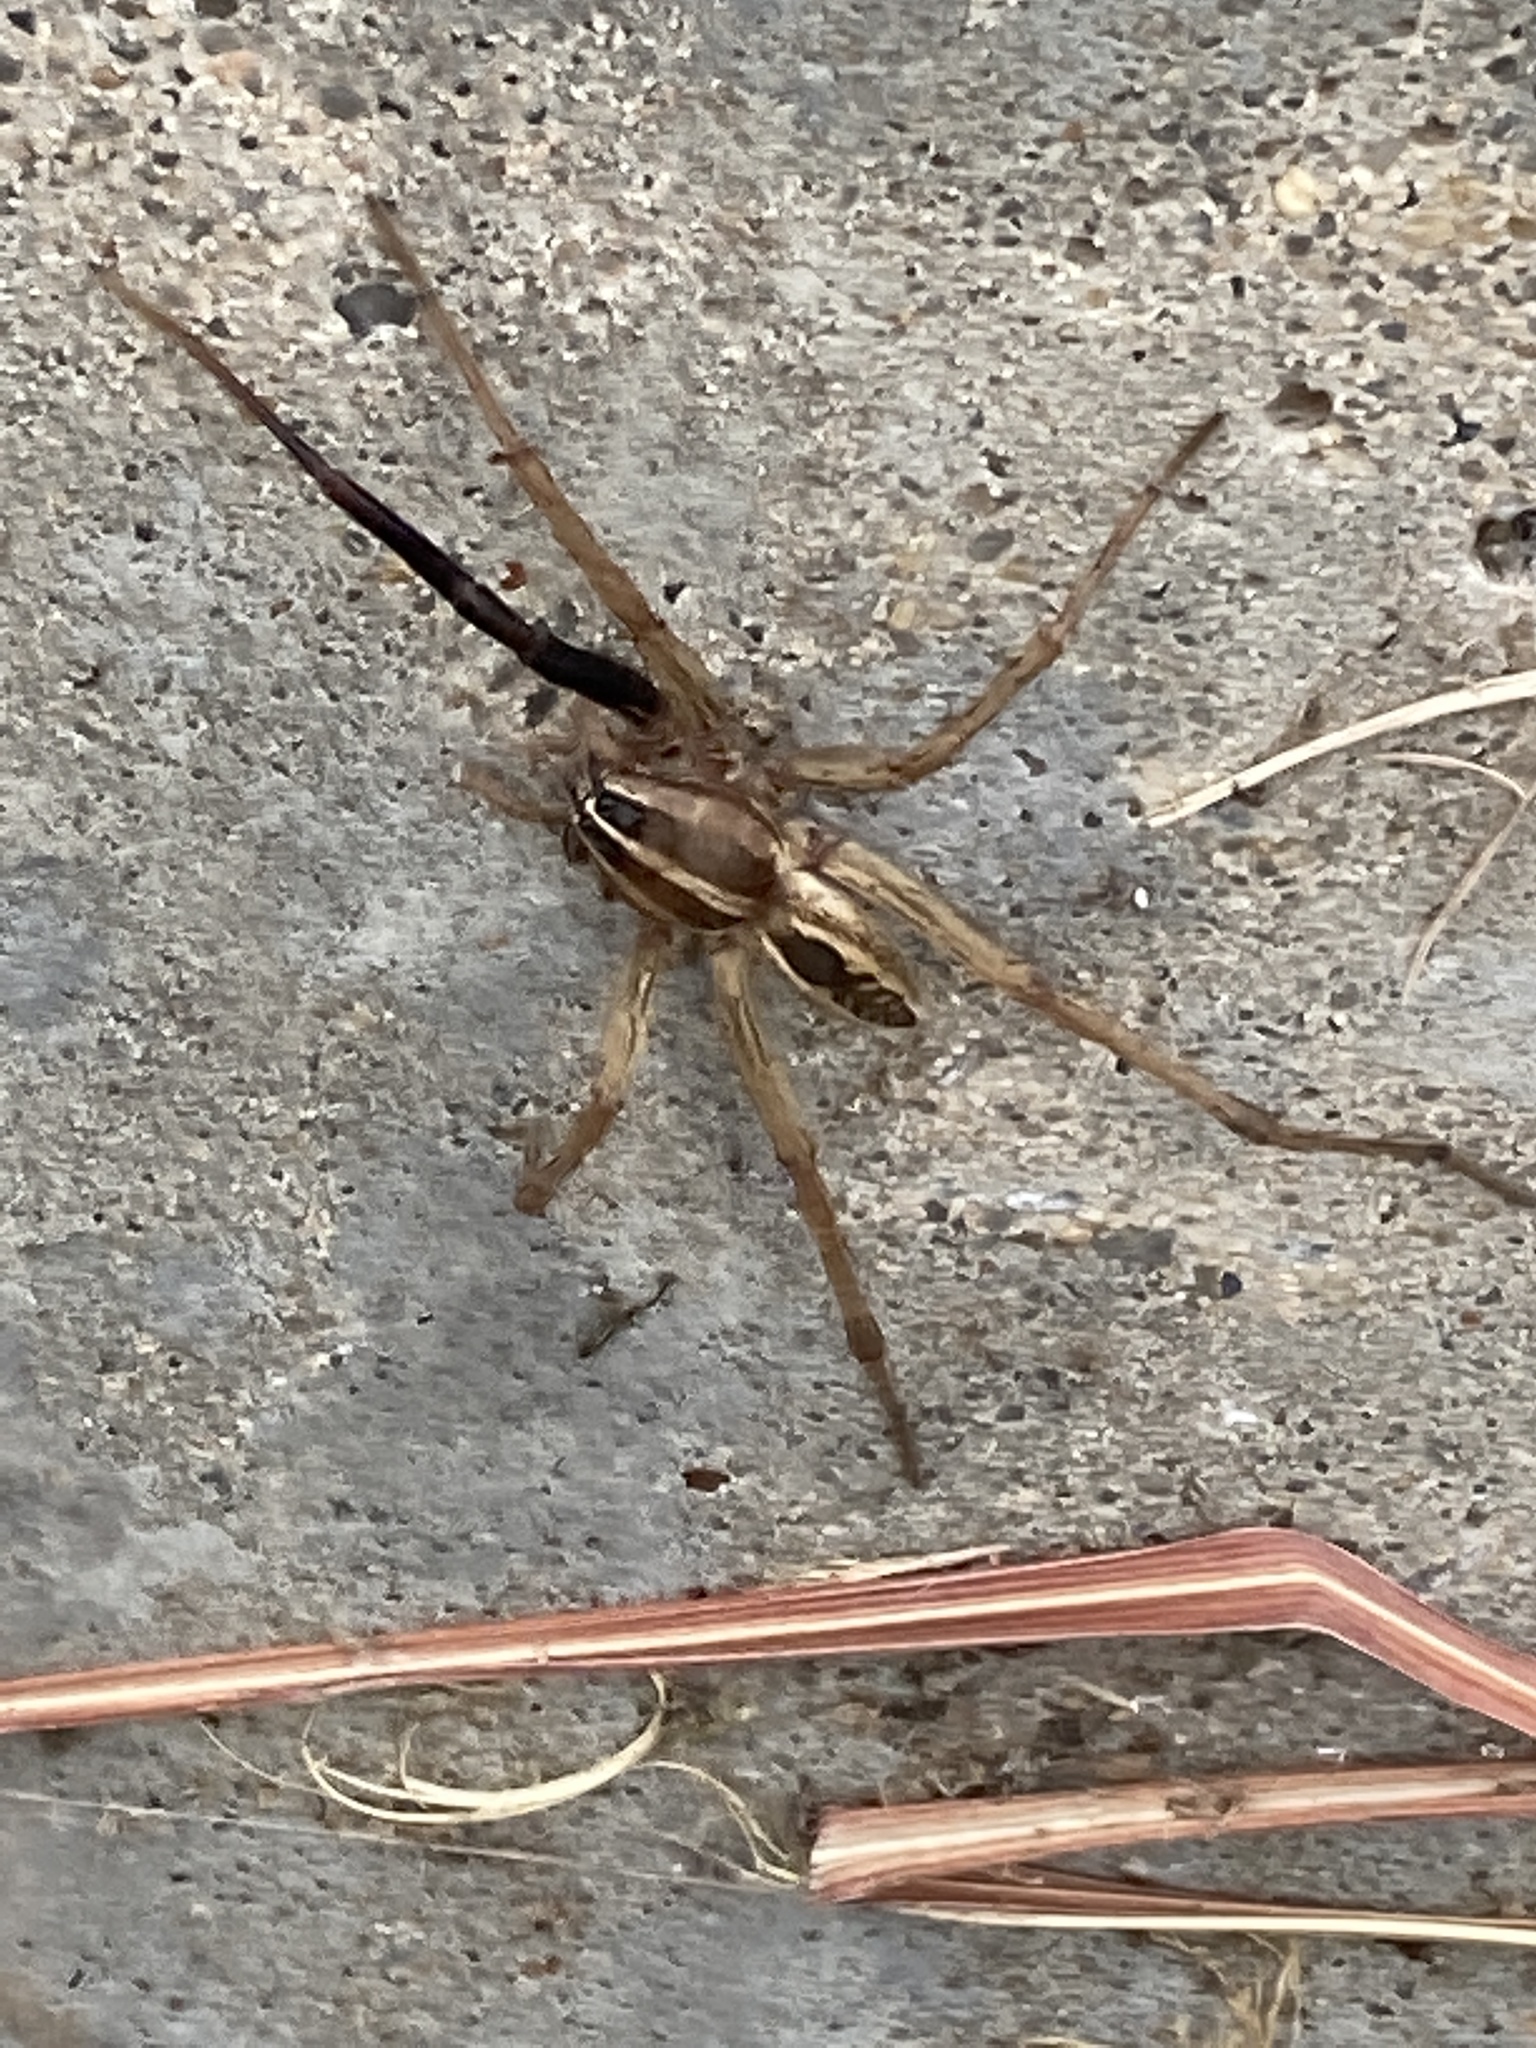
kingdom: Animalia
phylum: Arthropoda
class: Arachnida
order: Araneae
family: Lycosidae
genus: Rabidosa
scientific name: Rabidosa rabida
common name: Rabid wolf spider
